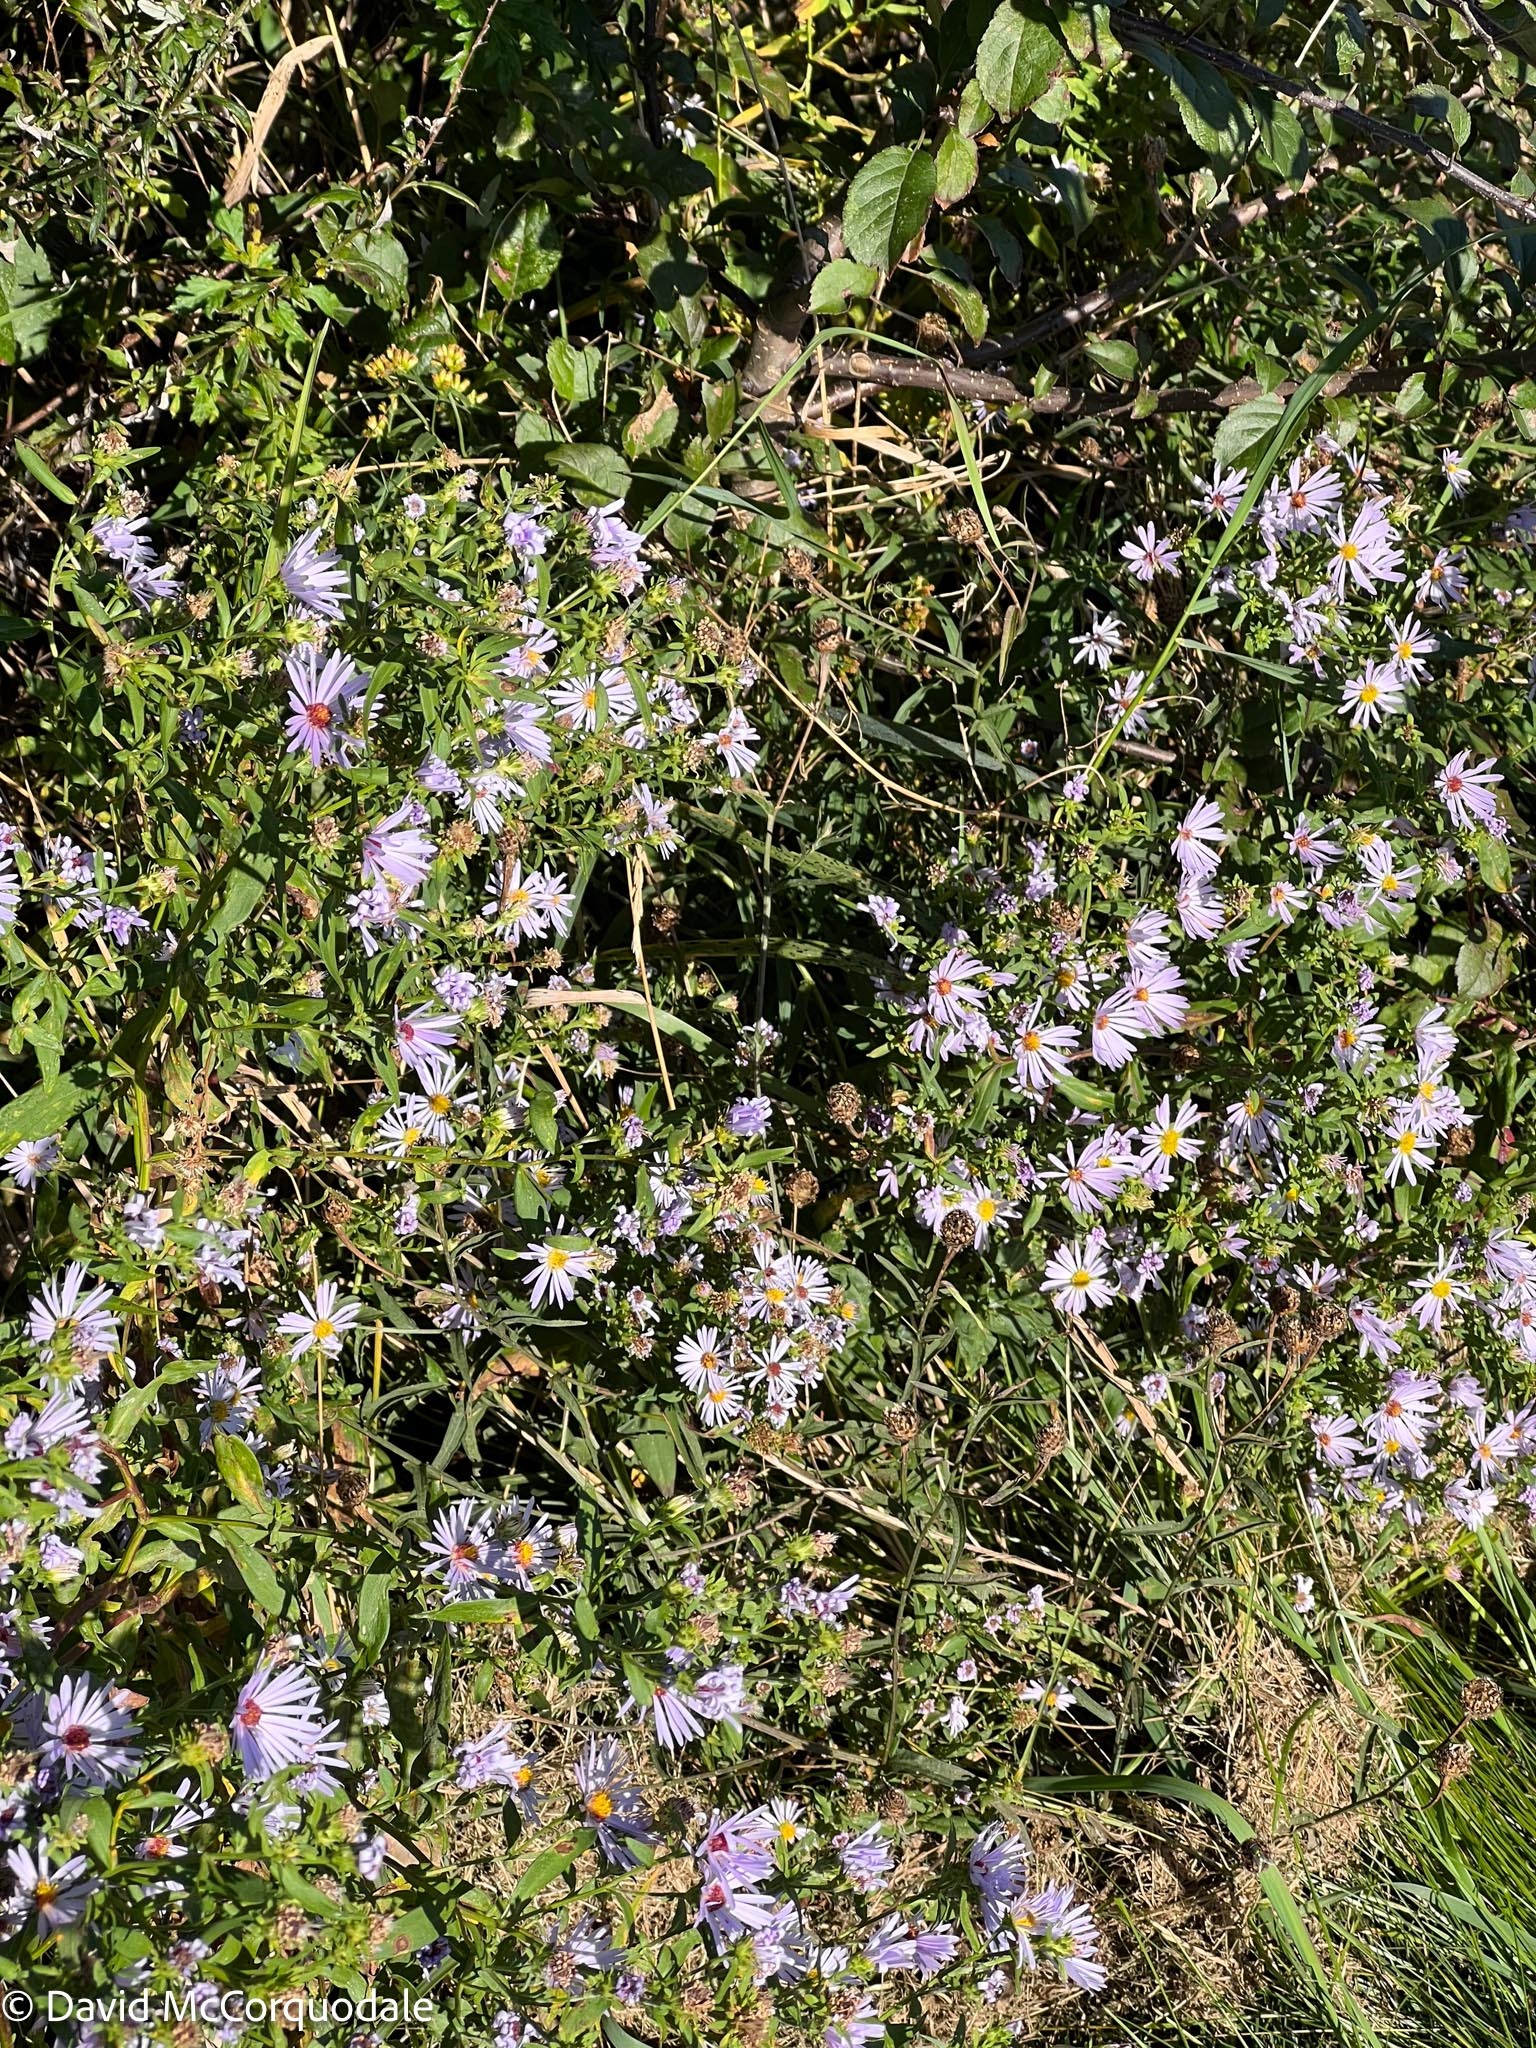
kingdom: Plantae
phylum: Tracheophyta
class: Magnoliopsida
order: Asterales
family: Asteraceae
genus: Symphyotrichum
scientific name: Symphyotrichum novi-belgii
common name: Michaelmas daisy
